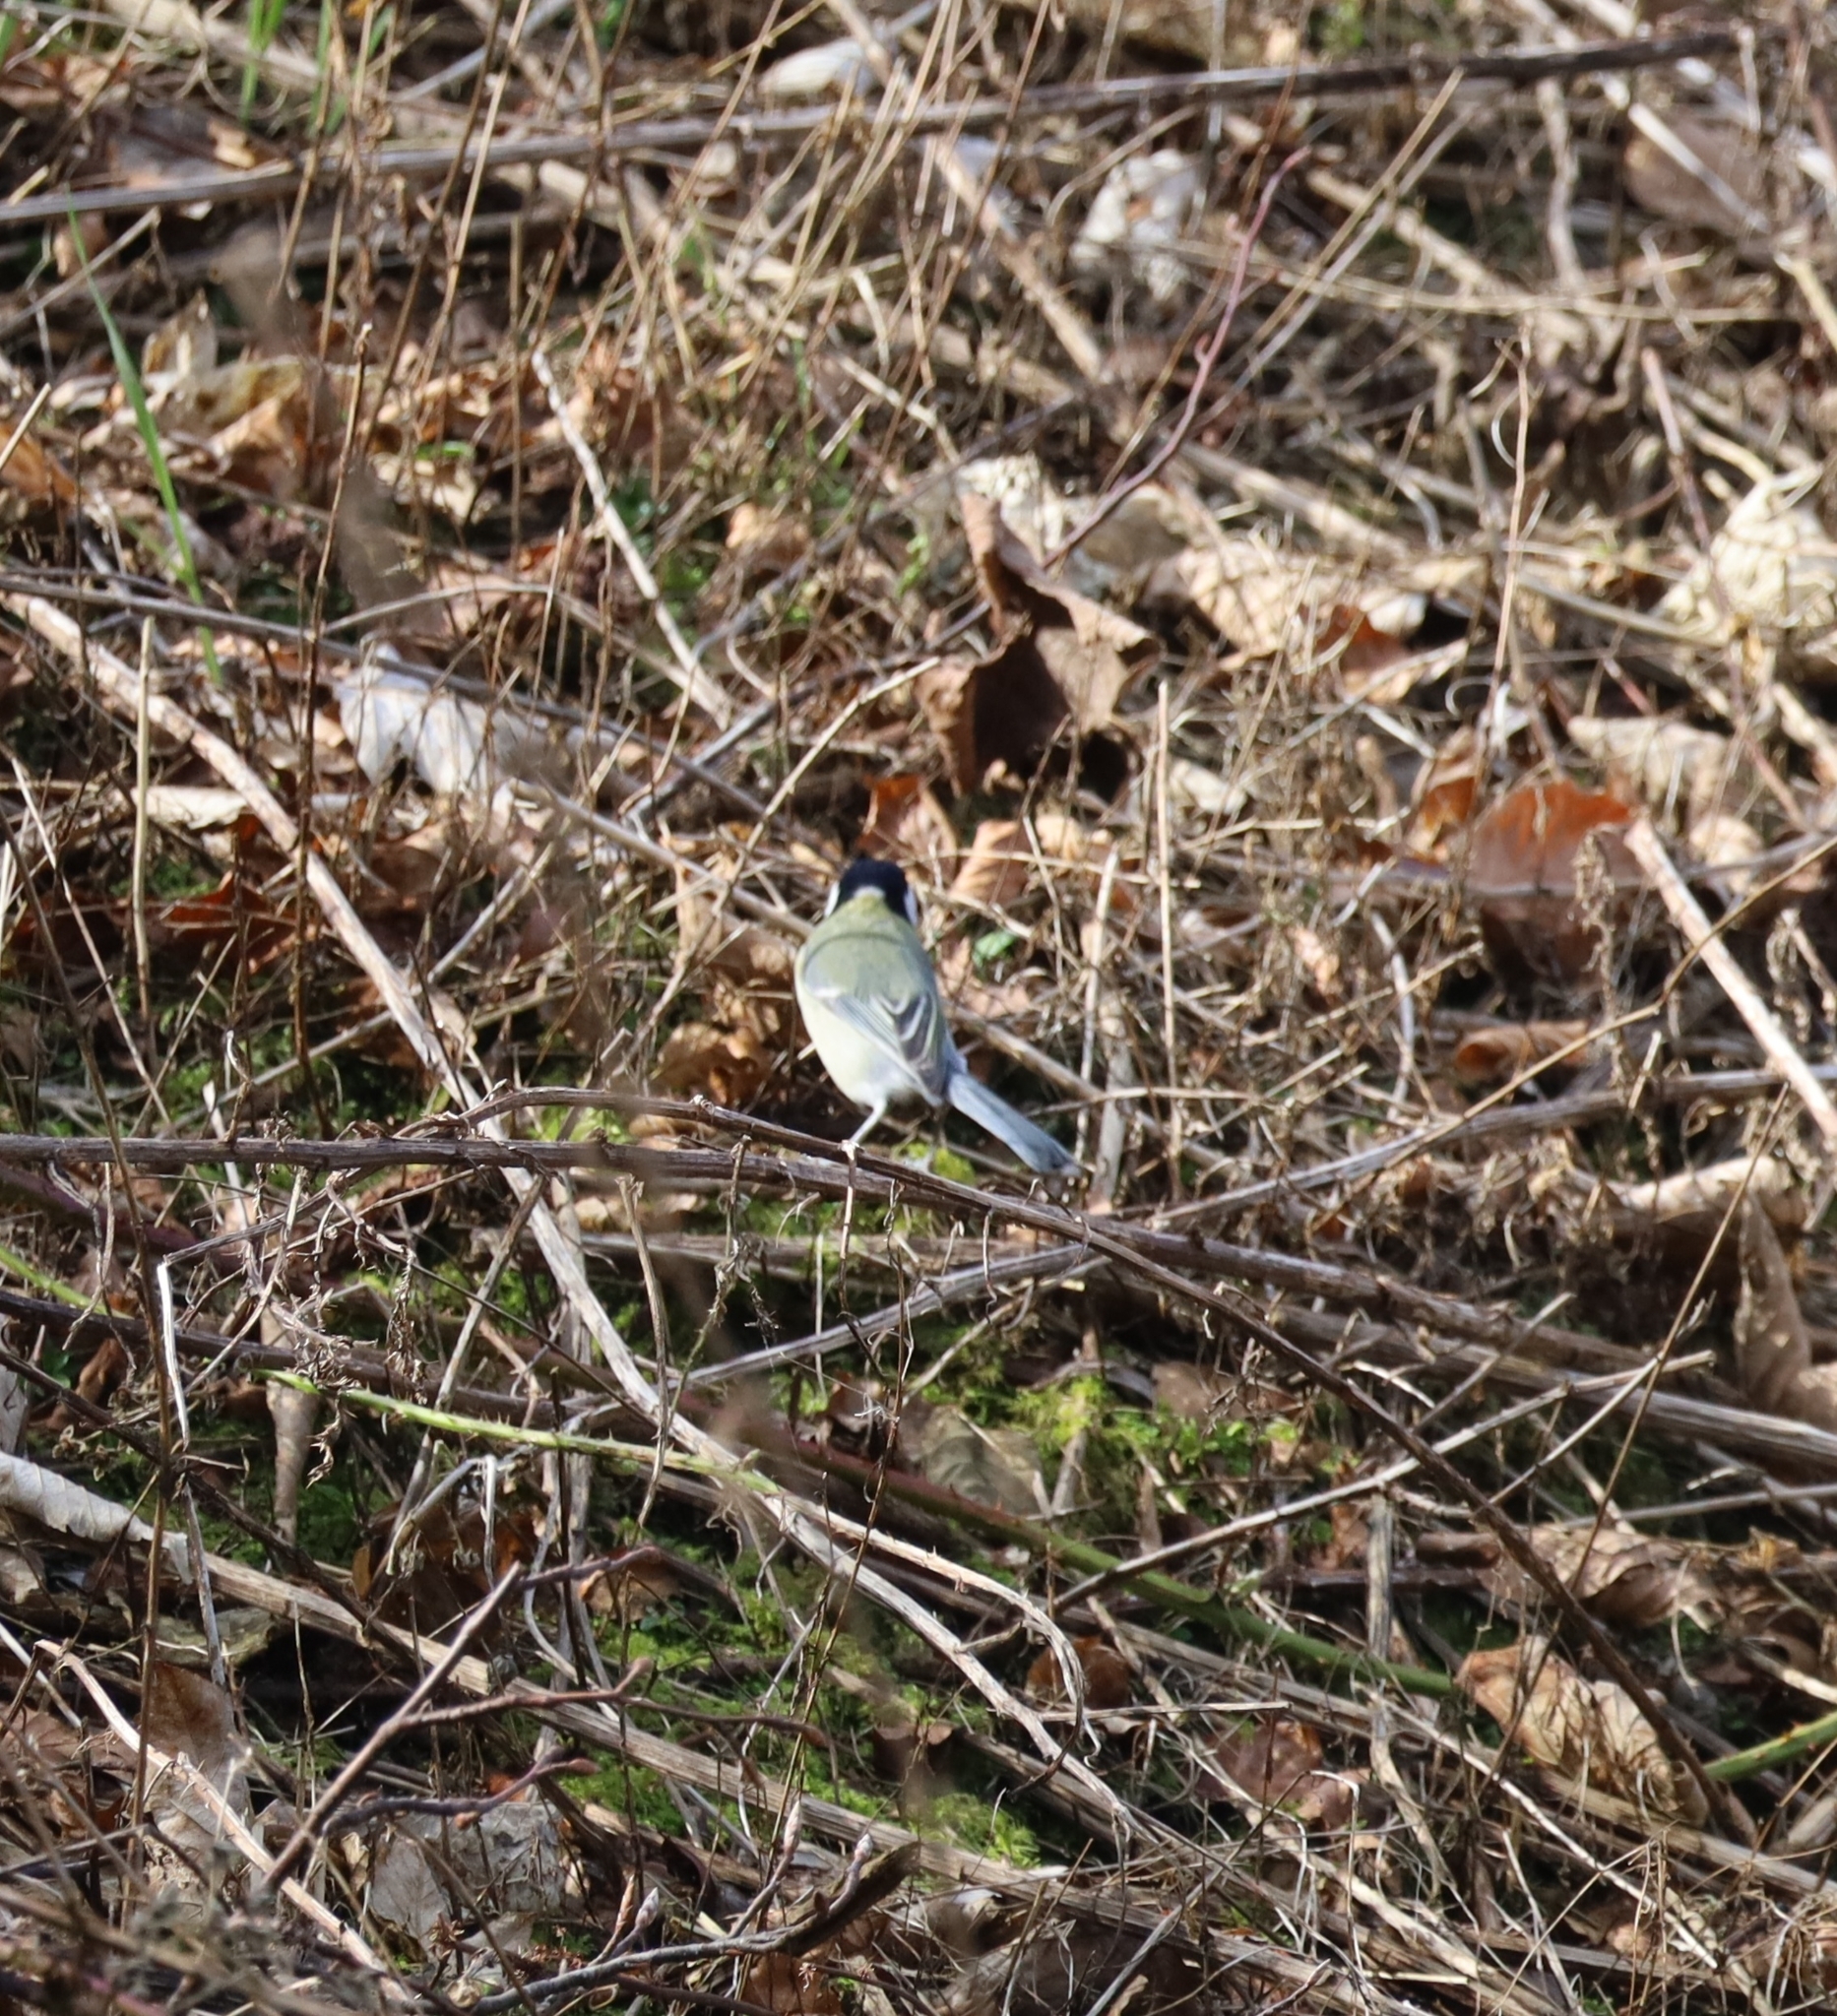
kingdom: Animalia
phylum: Chordata
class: Aves
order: Passeriformes
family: Paridae
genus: Parus
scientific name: Parus major
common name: Great tit
